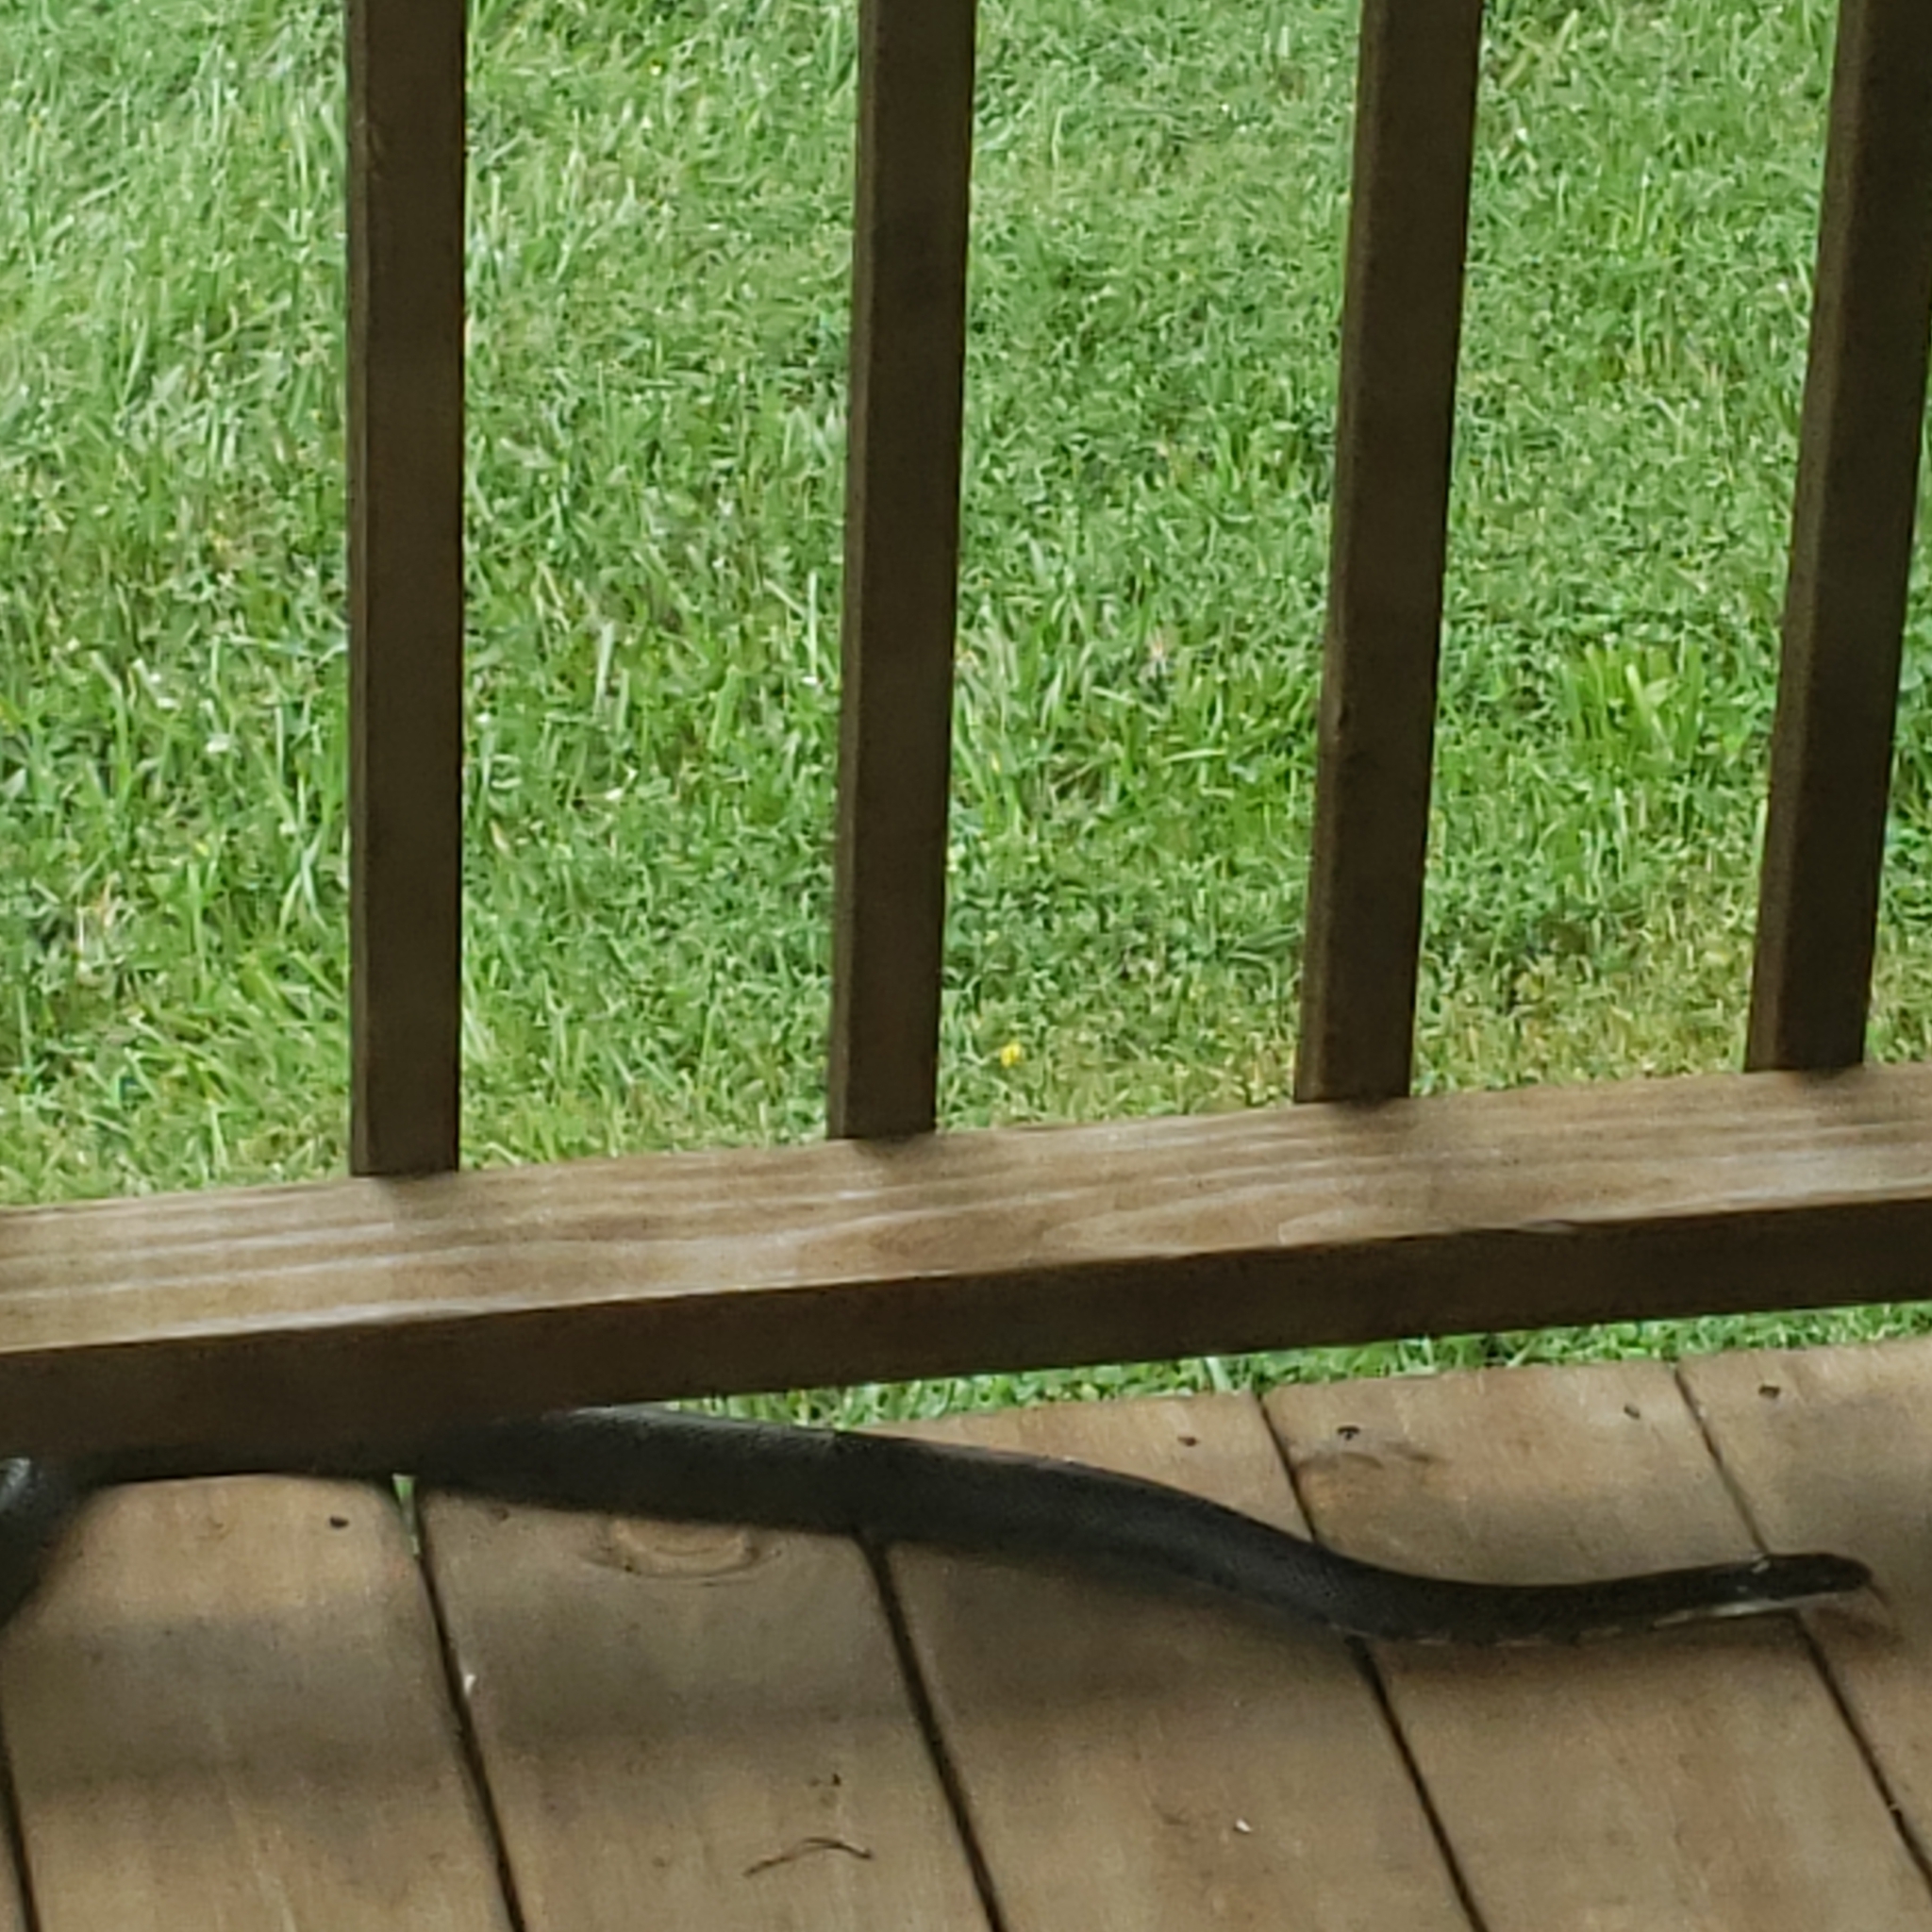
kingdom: Animalia
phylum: Chordata
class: Squamata
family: Colubridae
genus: Pantherophis
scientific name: Pantherophis obsoletus
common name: Black rat snake
